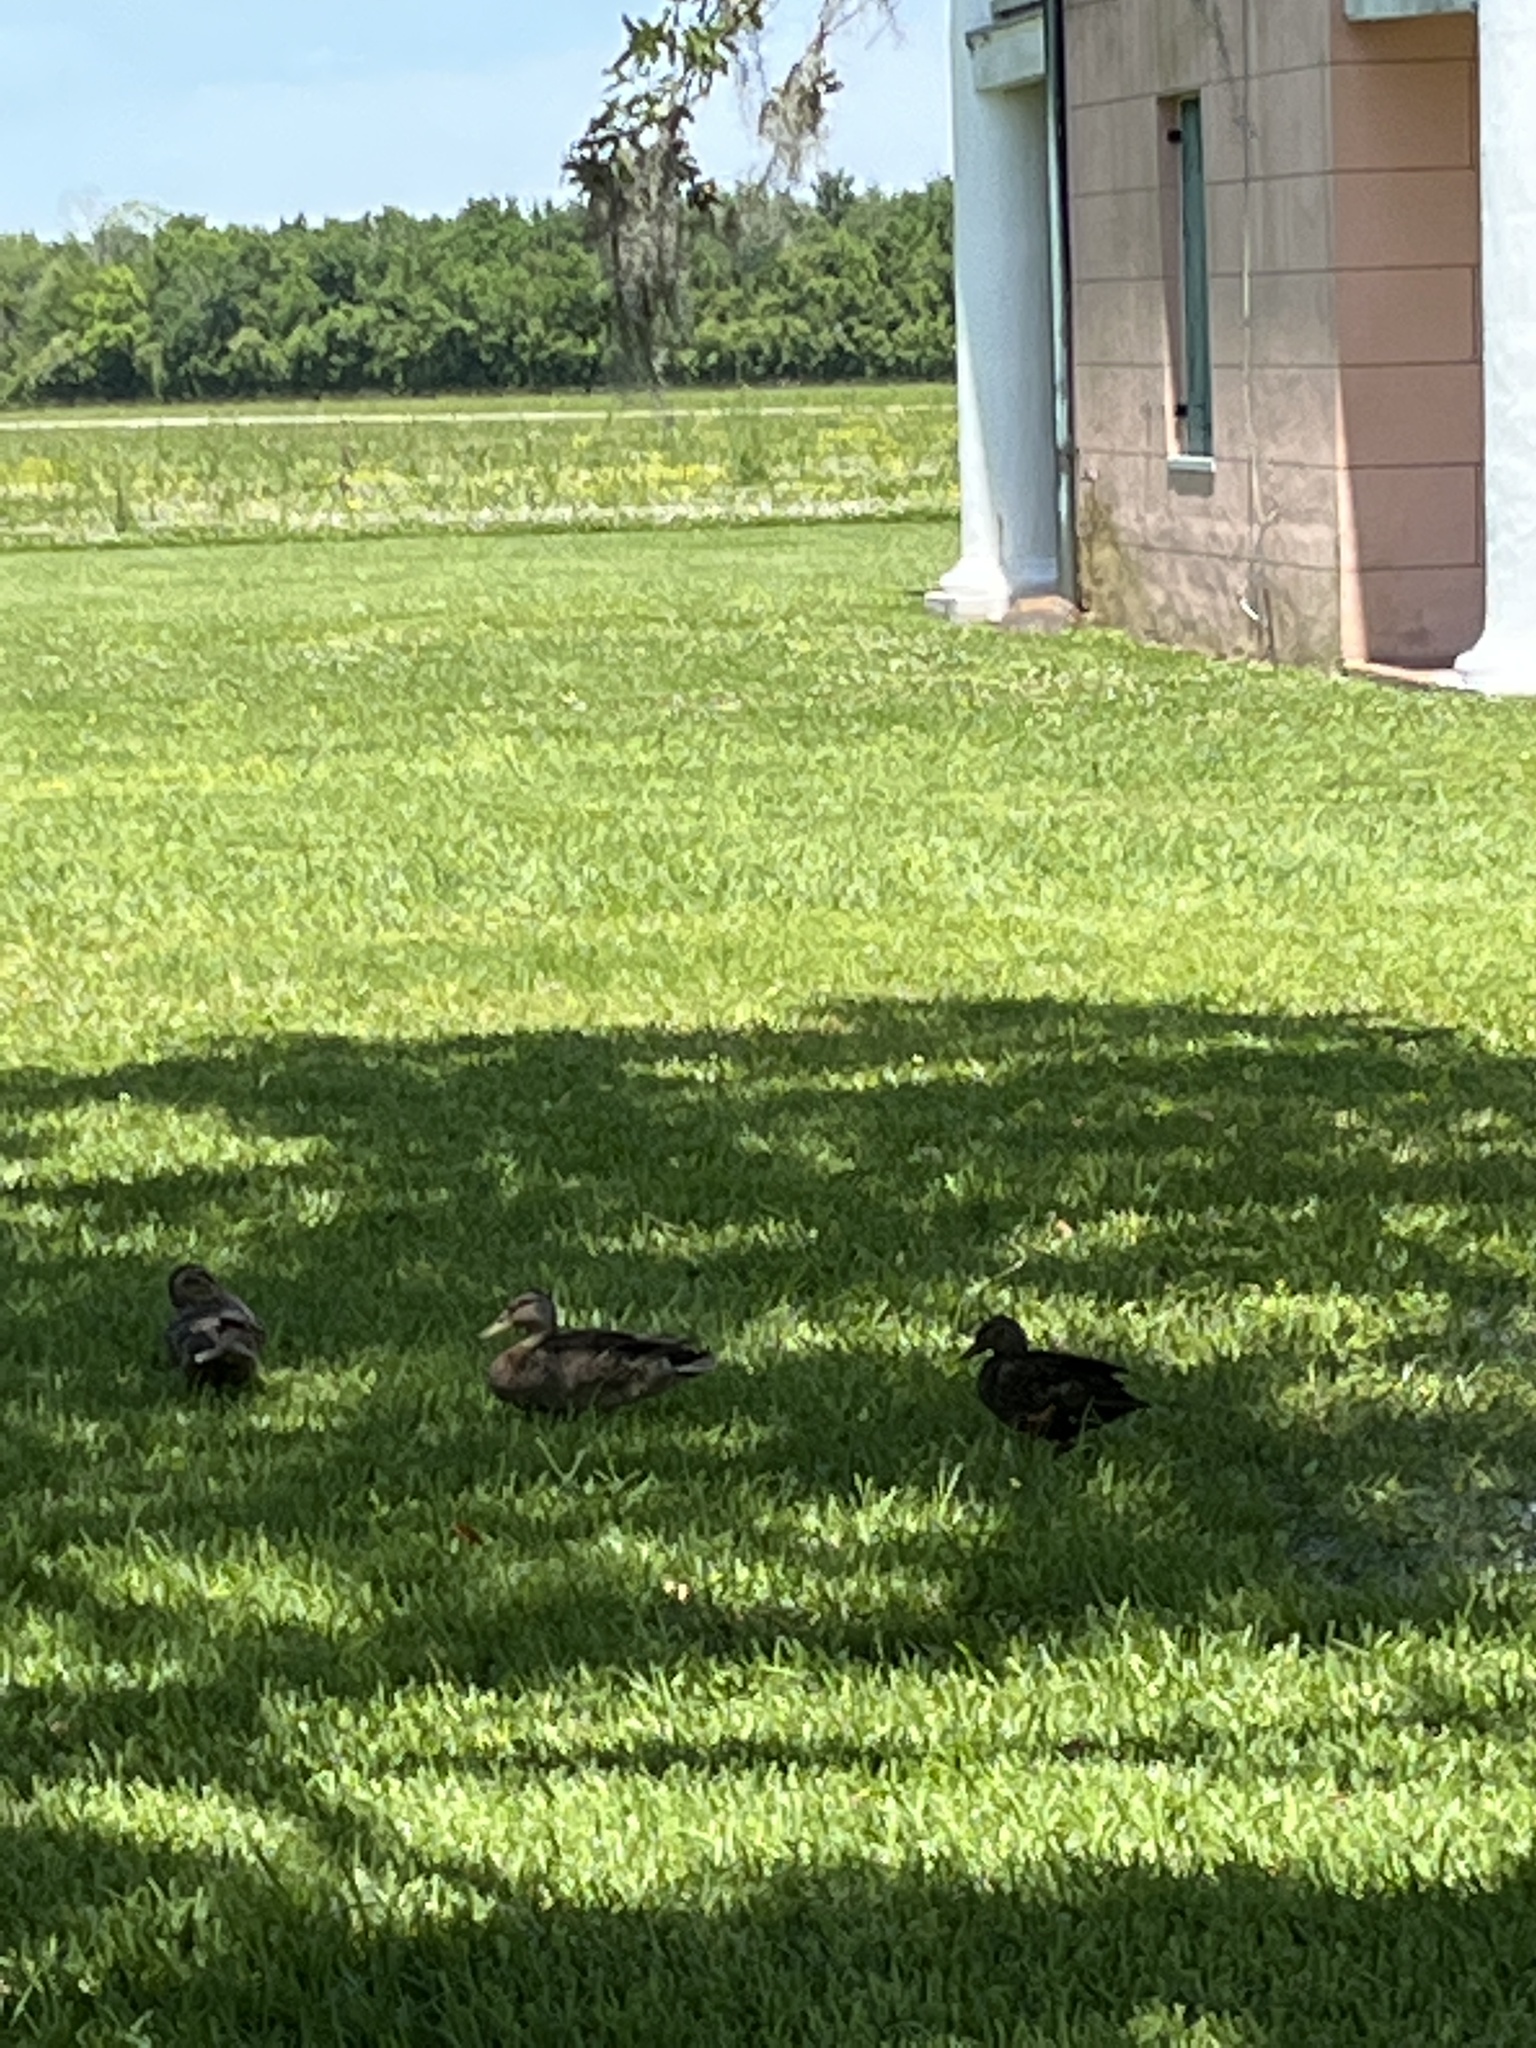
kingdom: Animalia
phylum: Chordata
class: Aves
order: Anseriformes
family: Anatidae
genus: Anas
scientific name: Anas platyrhynchos
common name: Mallard
